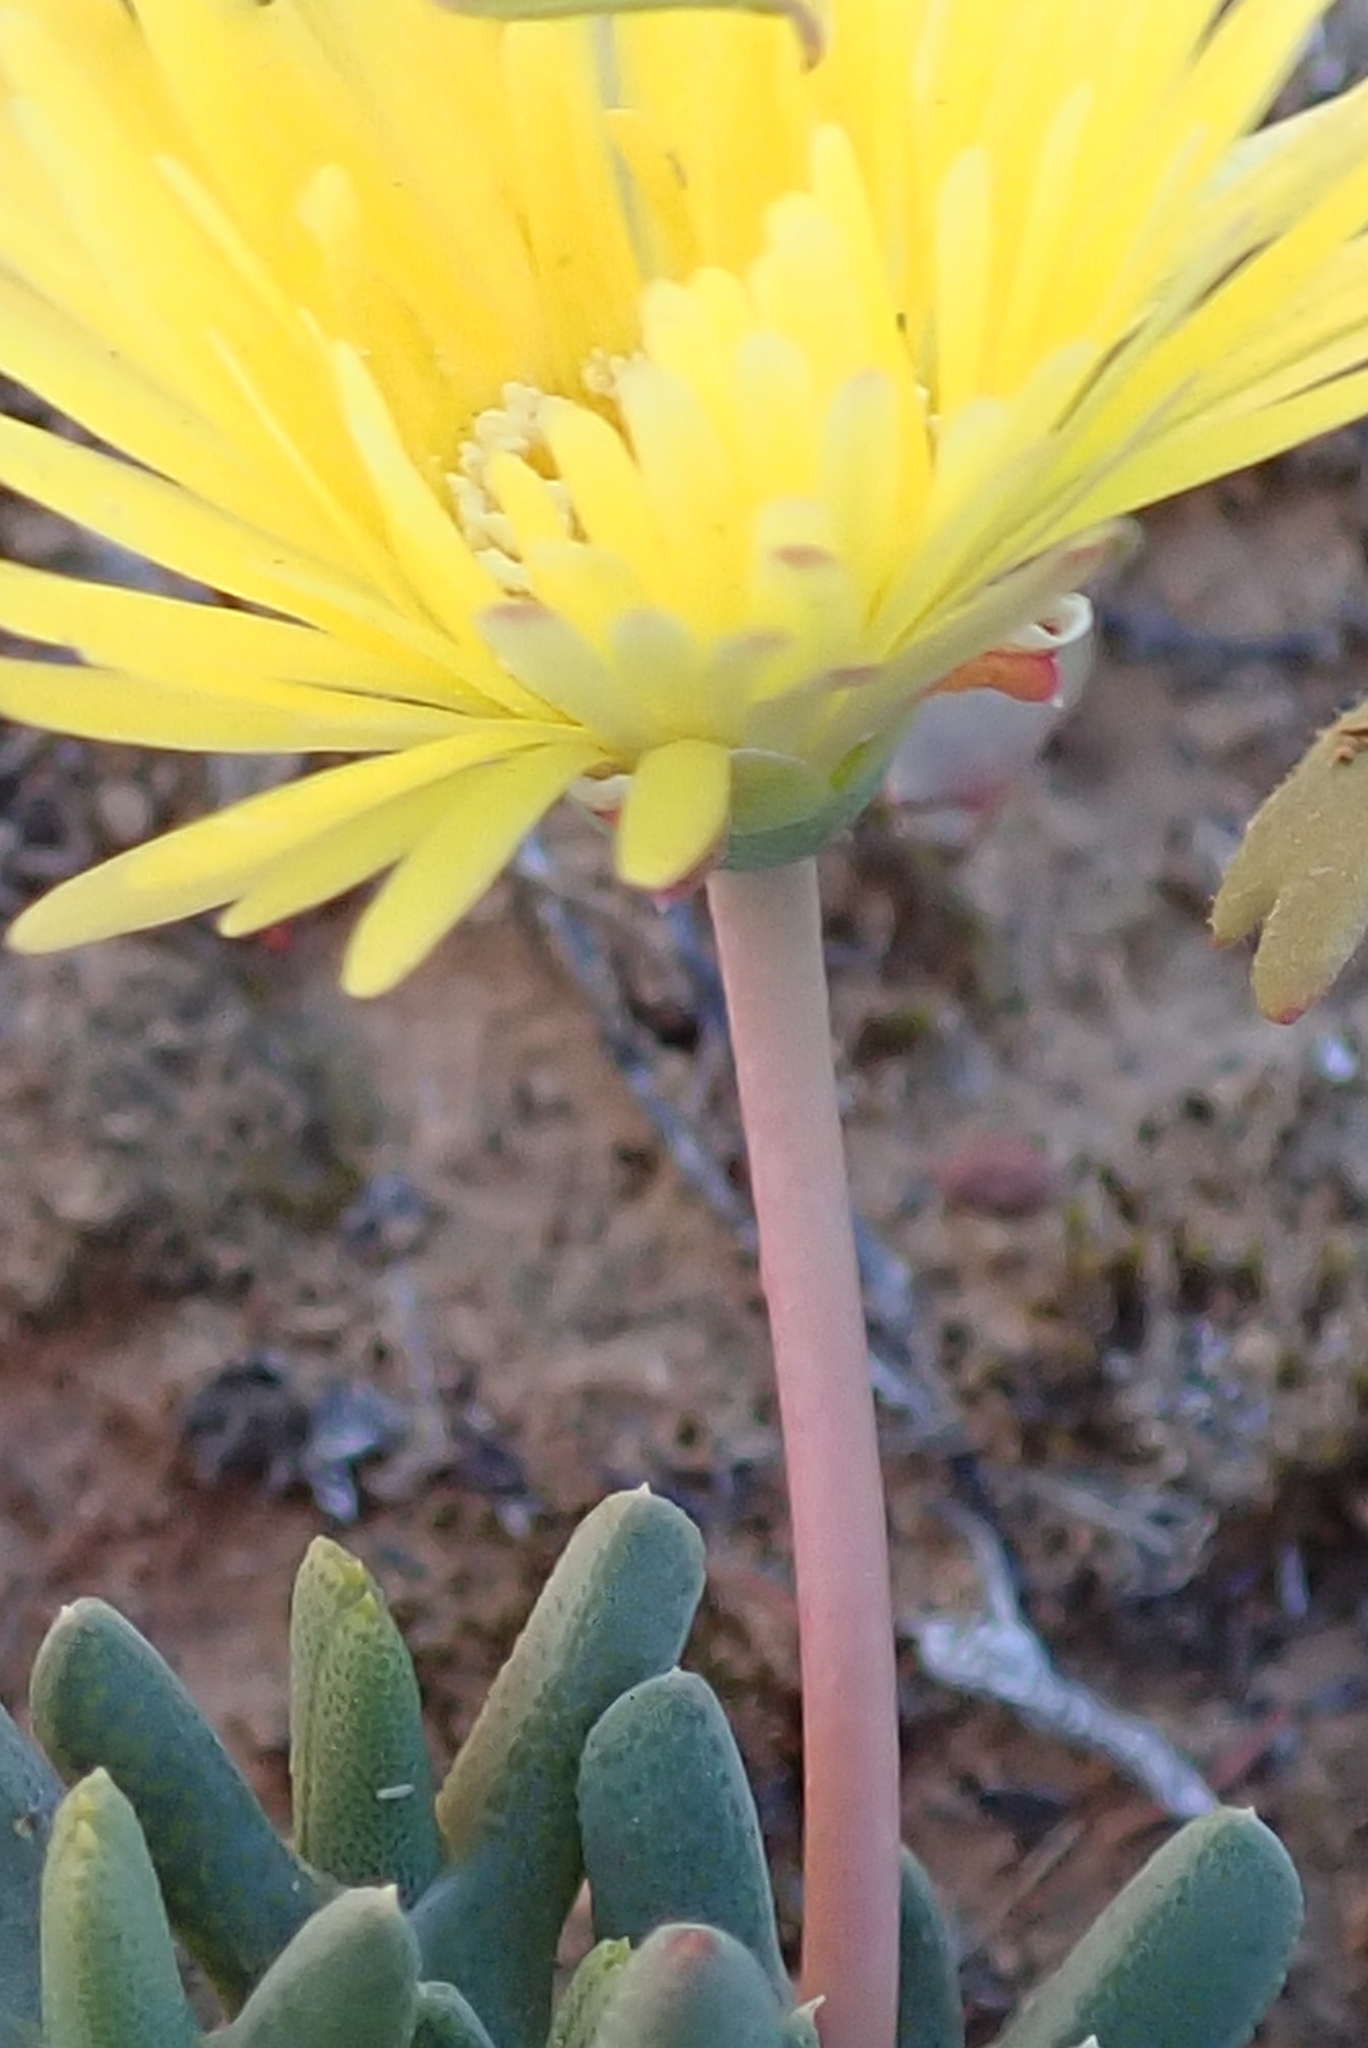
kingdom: Plantae
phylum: Tracheophyta
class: Magnoliopsida
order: Caryophyllales
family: Aizoaceae
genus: Cheiridopsis
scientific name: Cheiridopsis namaquensis
